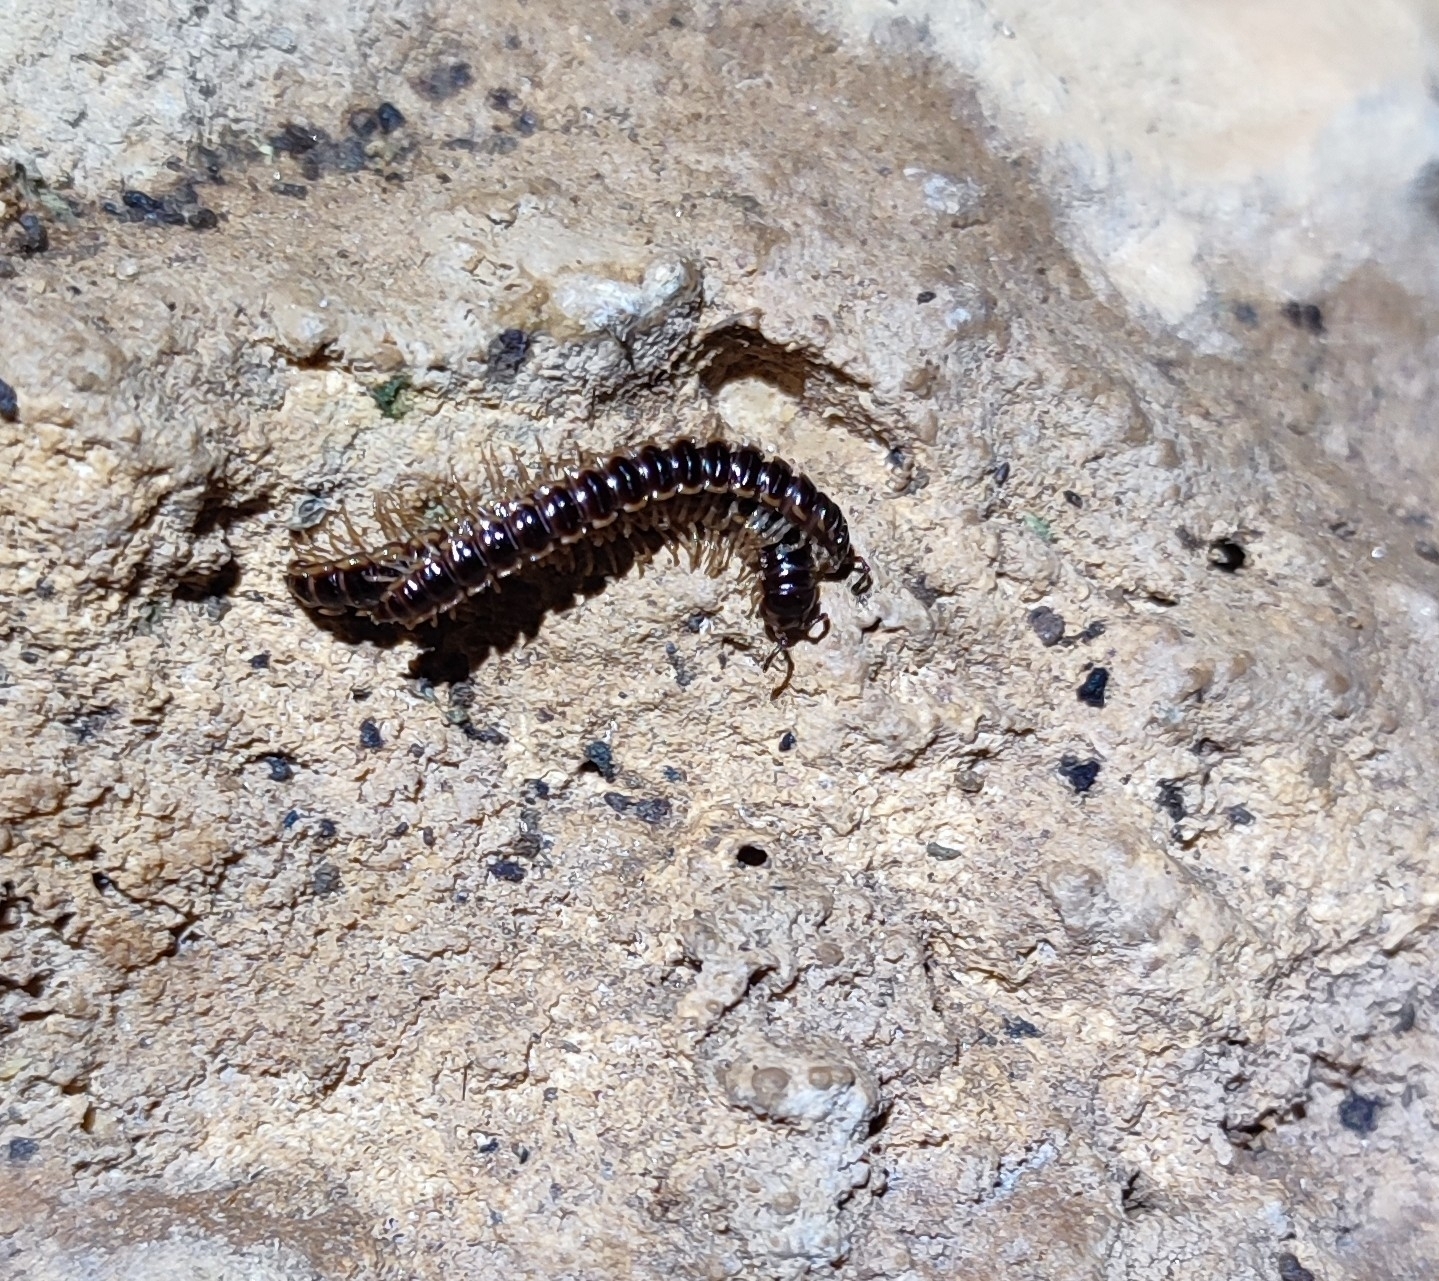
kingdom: Animalia
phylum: Arthropoda
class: Diplopoda
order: Polydesmida
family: Paradoxosomatidae
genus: Oxidus
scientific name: Oxidus gracilis
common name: Greenhouse millipede
